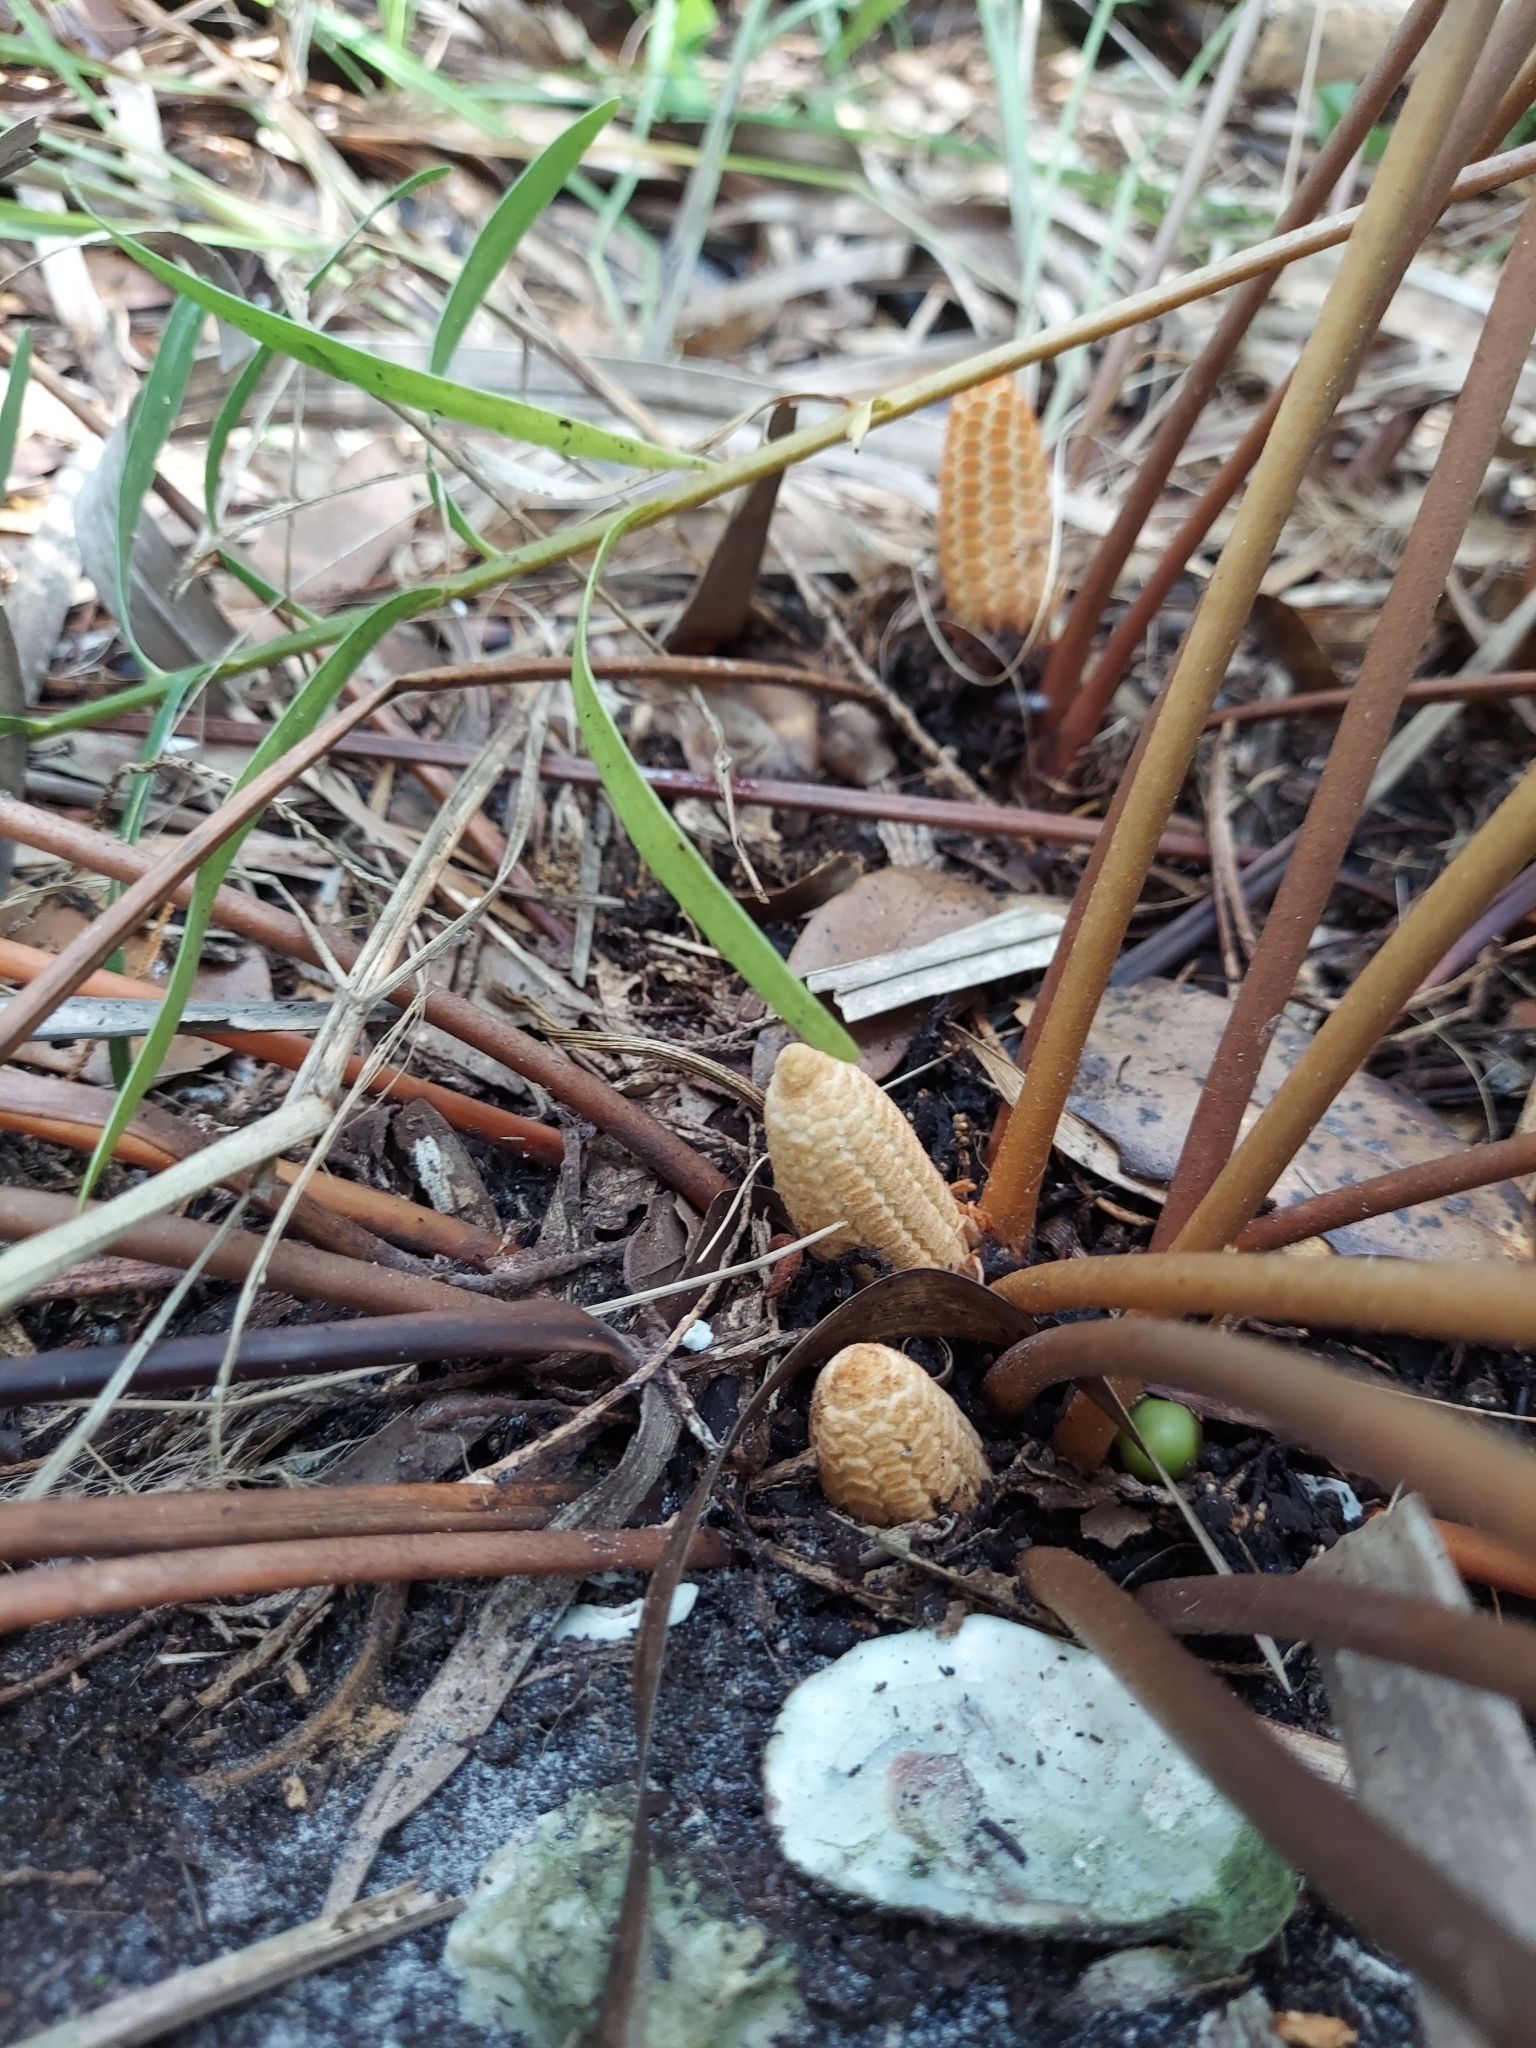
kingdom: Plantae
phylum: Tracheophyta
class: Cycadopsida
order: Cycadales
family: Zamiaceae
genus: Zamia
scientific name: Zamia integrifolia
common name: Florida arrowroot
